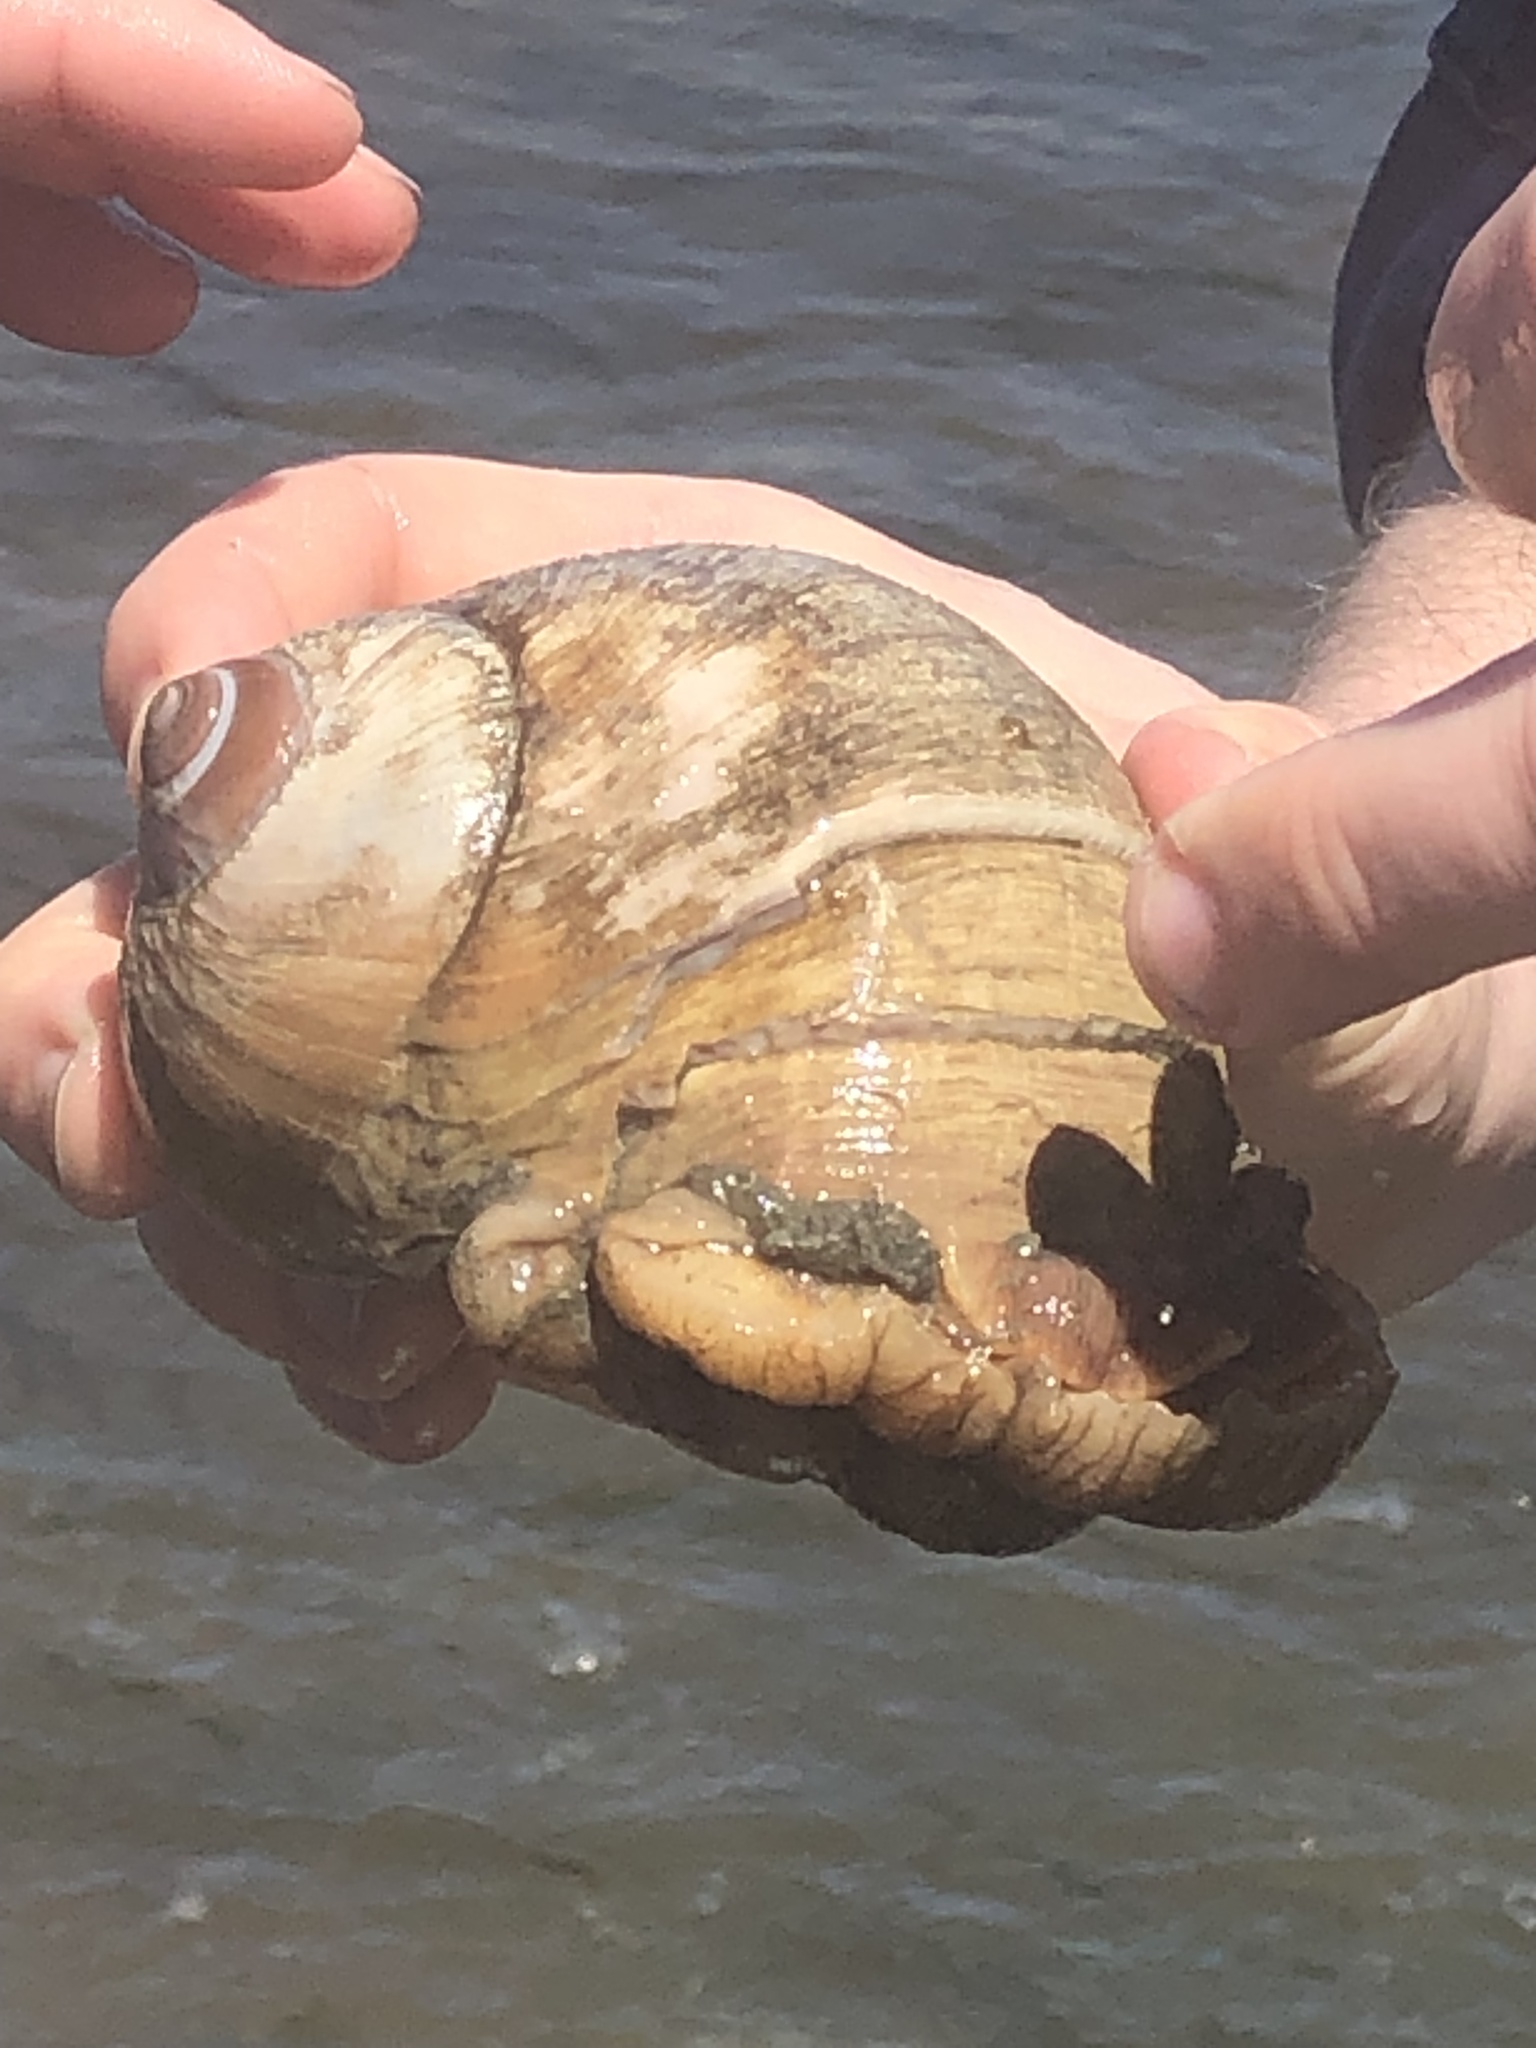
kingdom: Animalia
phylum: Mollusca
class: Gastropoda
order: Littorinimorpha
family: Naticidae
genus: Neverita
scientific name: Neverita lewisii
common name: Lewis' moonsnail
